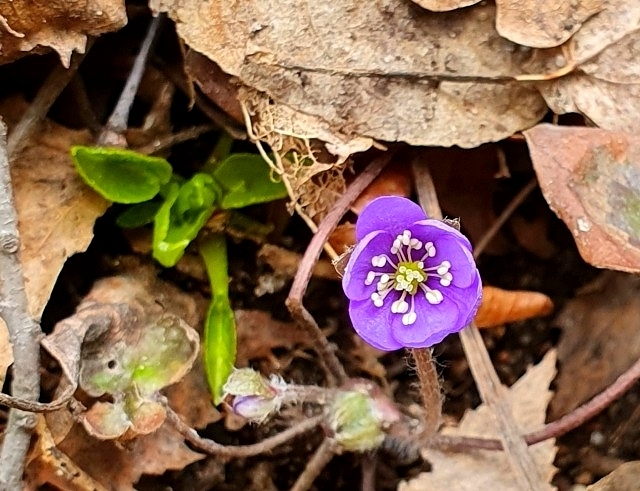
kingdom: Plantae
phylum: Tracheophyta
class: Magnoliopsida
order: Ranunculales
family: Ranunculaceae
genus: Hepatica
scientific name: Hepatica nobilis
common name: Liverleaf
